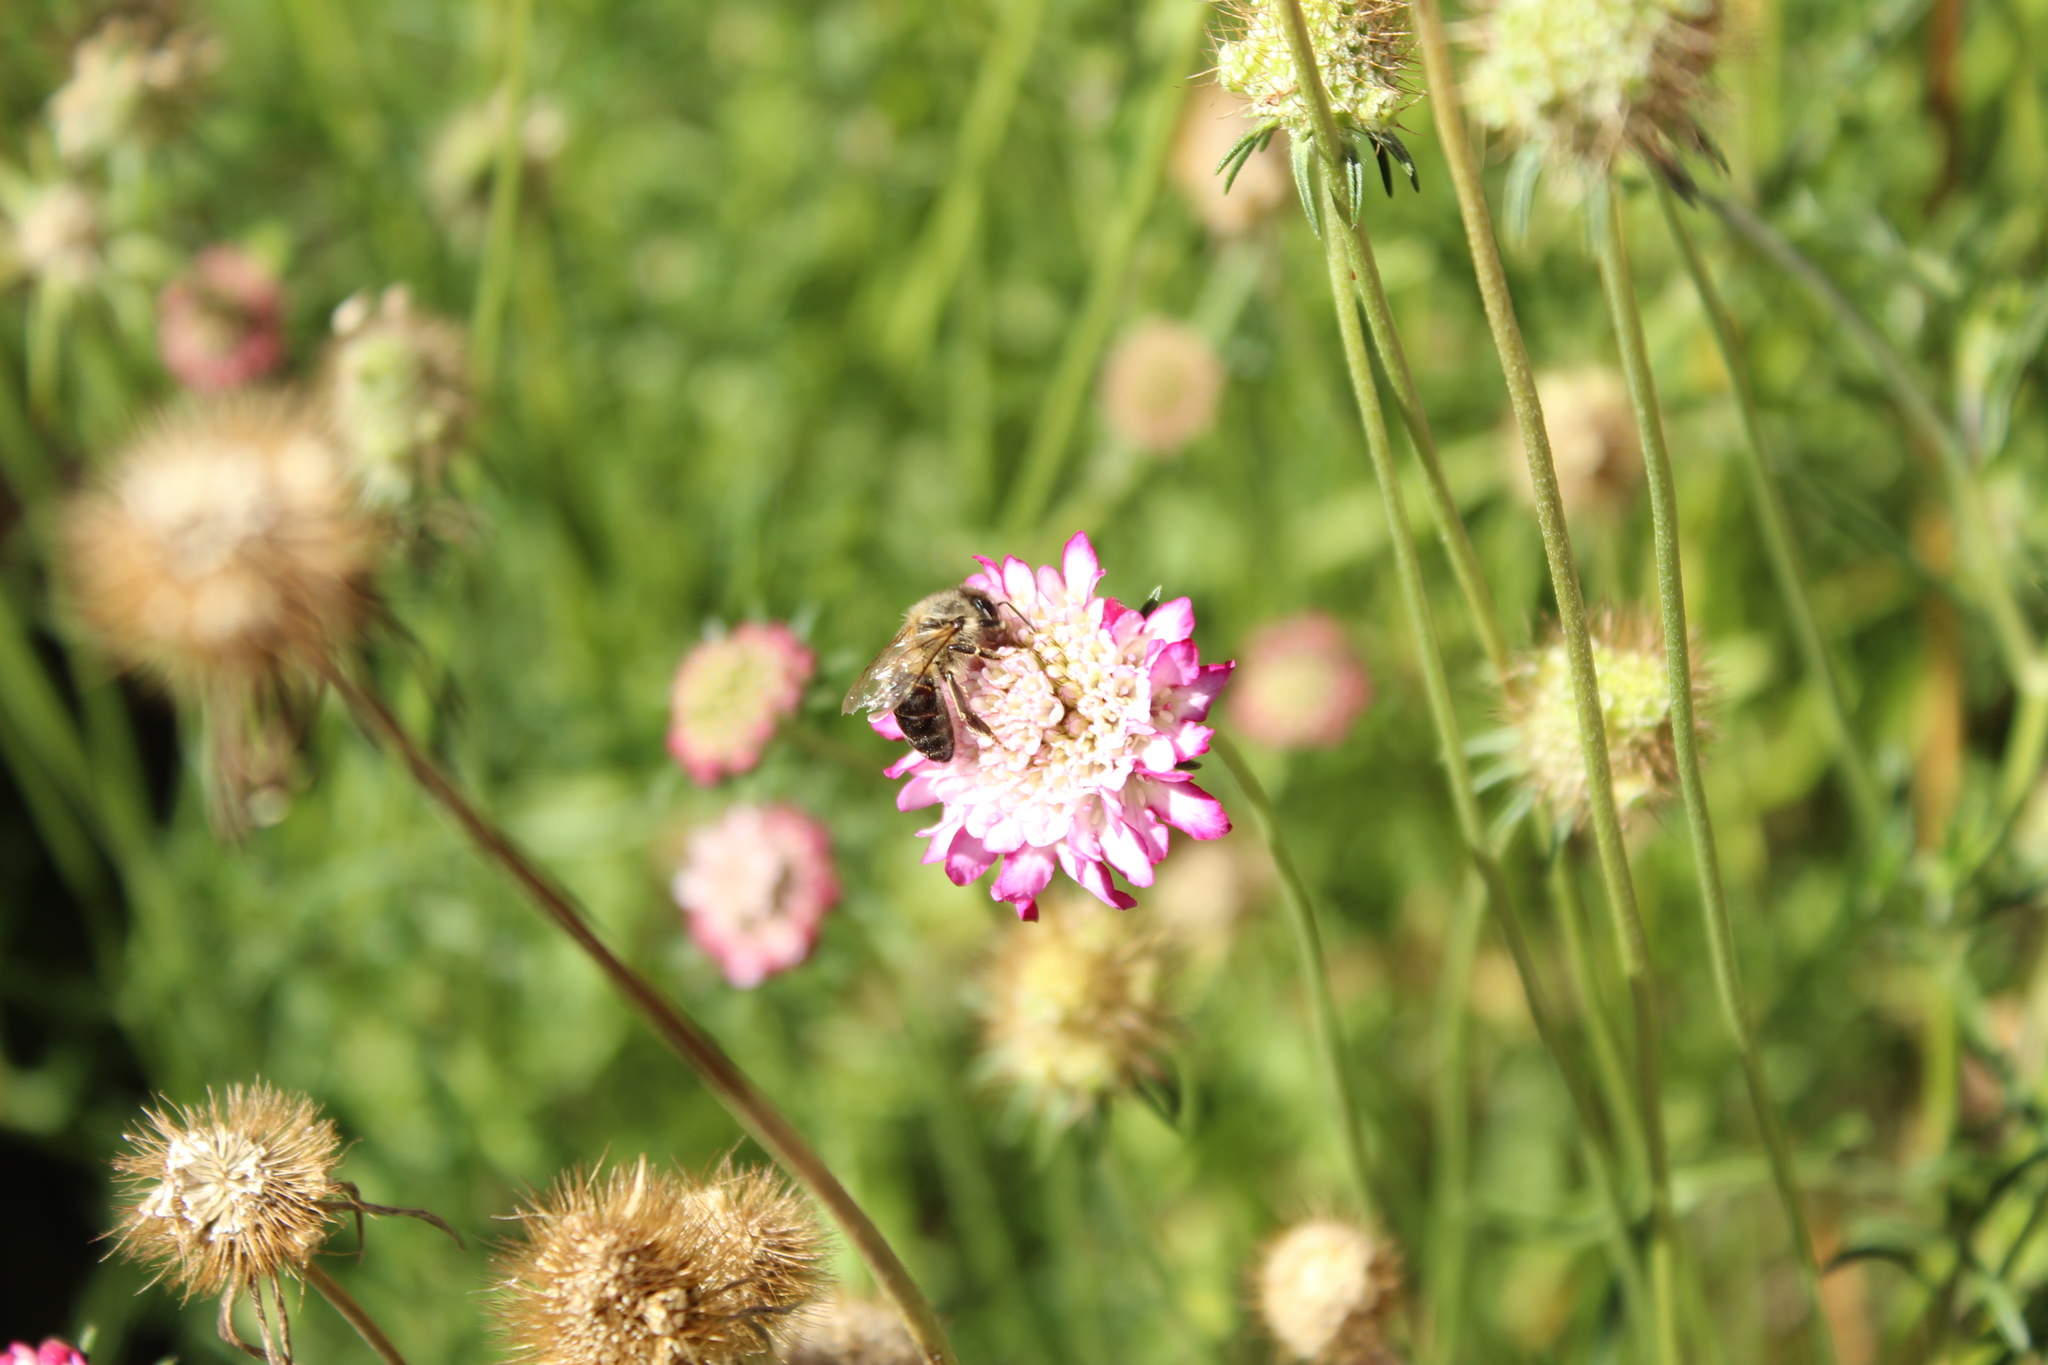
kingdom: Animalia
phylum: Arthropoda
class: Insecta
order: Hymenoptera
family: Apidae
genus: Apis
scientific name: Apis mellifera
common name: Honey bee
